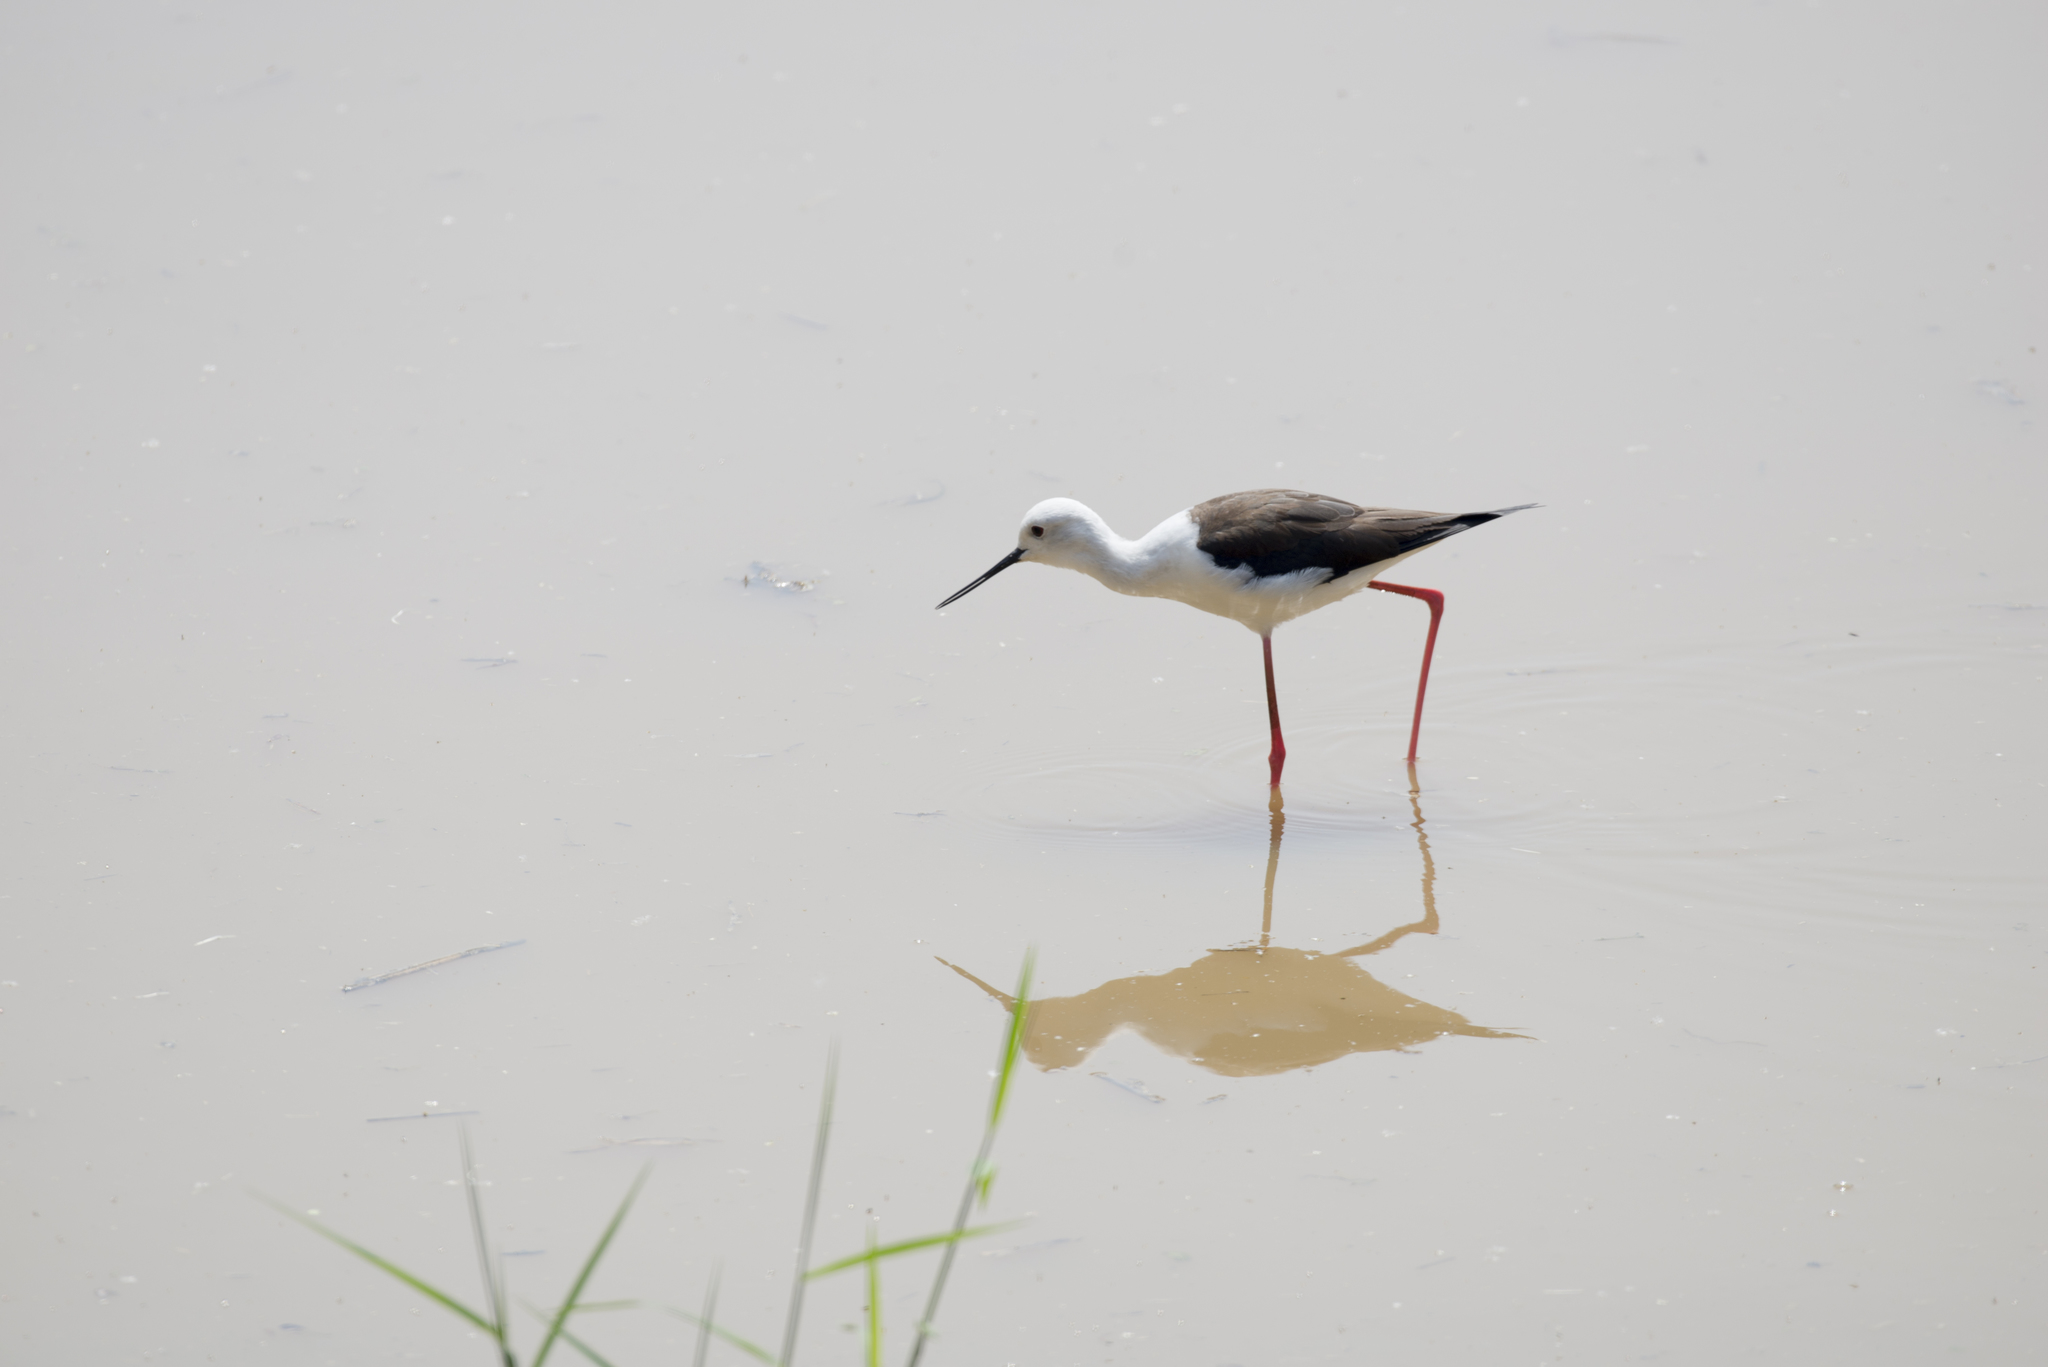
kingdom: Animalia
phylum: Chordata
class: Aves
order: Charadriiformes
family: Recurvirostridae
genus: Himantopus
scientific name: Himantopus himantopus
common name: Black-winged stilt
